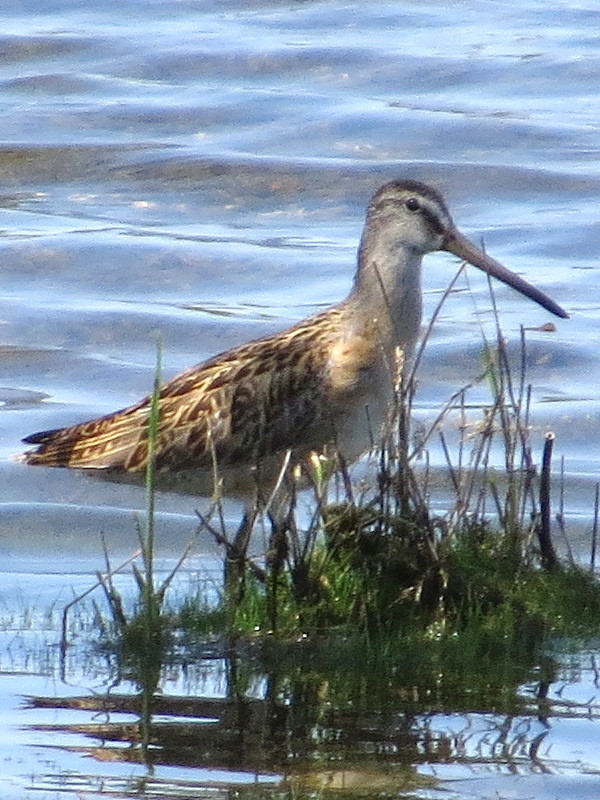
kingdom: Animalia
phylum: Chordata
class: Aves
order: Charadriiformes
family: Scolopacidae
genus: Limnodromus
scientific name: Limnodromus griseus
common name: Short-billed dowitcher
